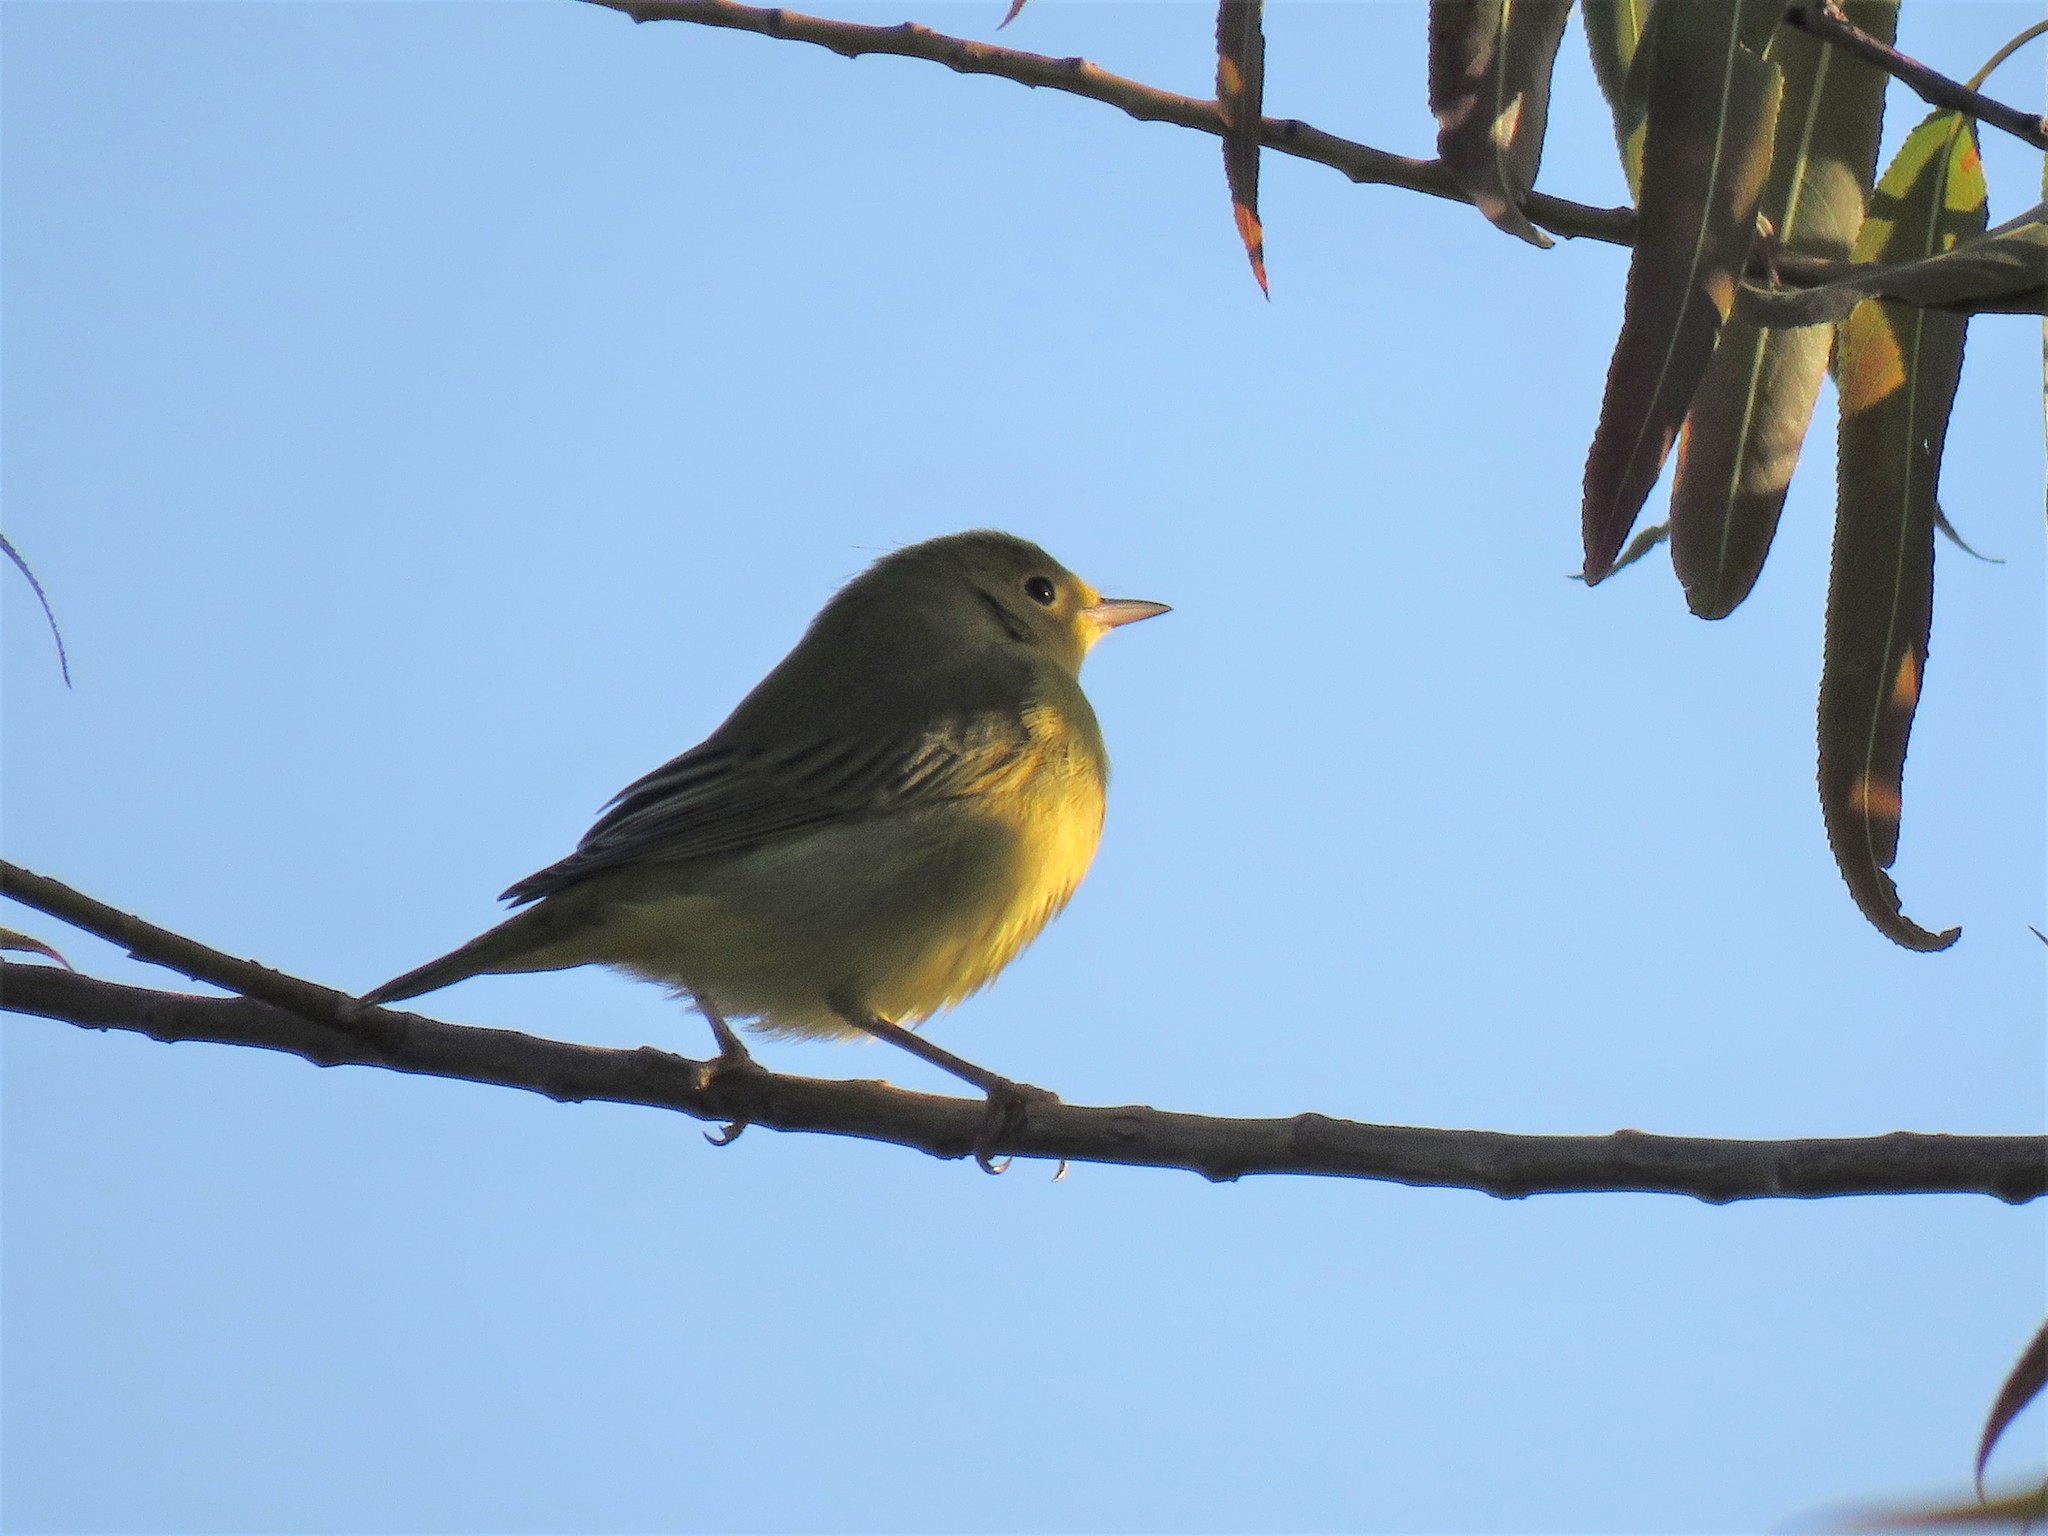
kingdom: Animalia
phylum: Chordata
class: Aves
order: Passeriformes
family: Parulidae
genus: Setophaga
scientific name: Setophaga petechia
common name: Yellow warbler
